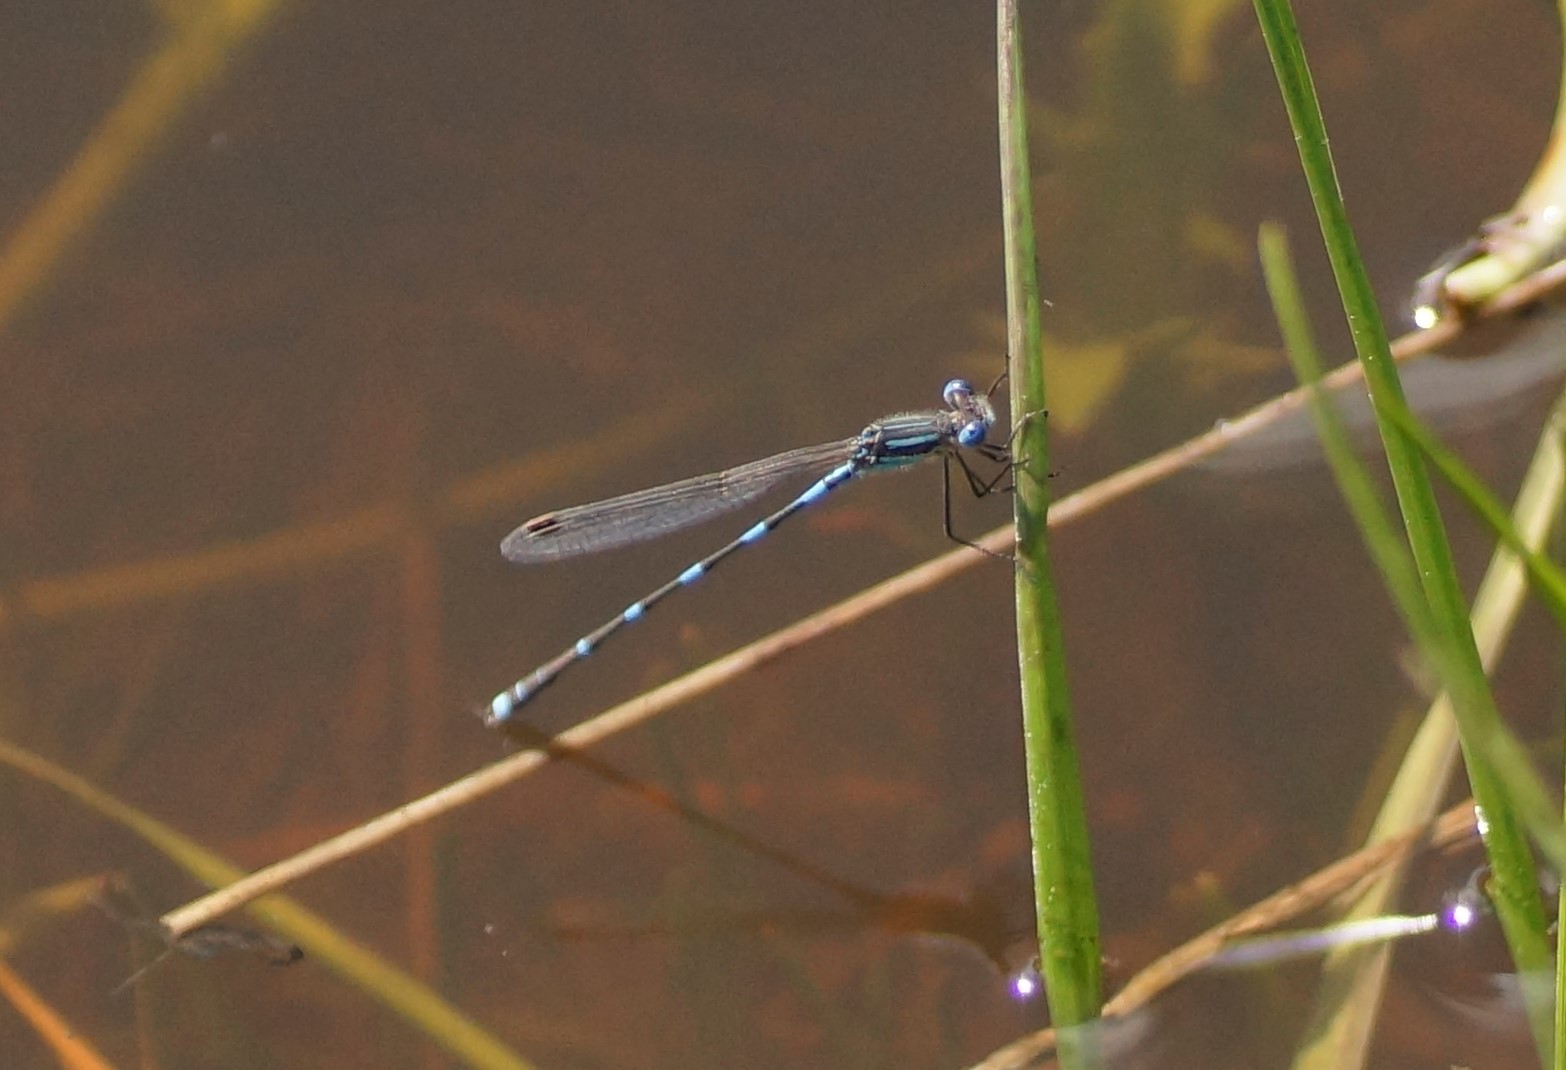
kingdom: Animalia
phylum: Arthropoda
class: Insecta
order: Odonata
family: Lestidae
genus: Austrolestes
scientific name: Austrolestes leda
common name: Wandering ringtail
